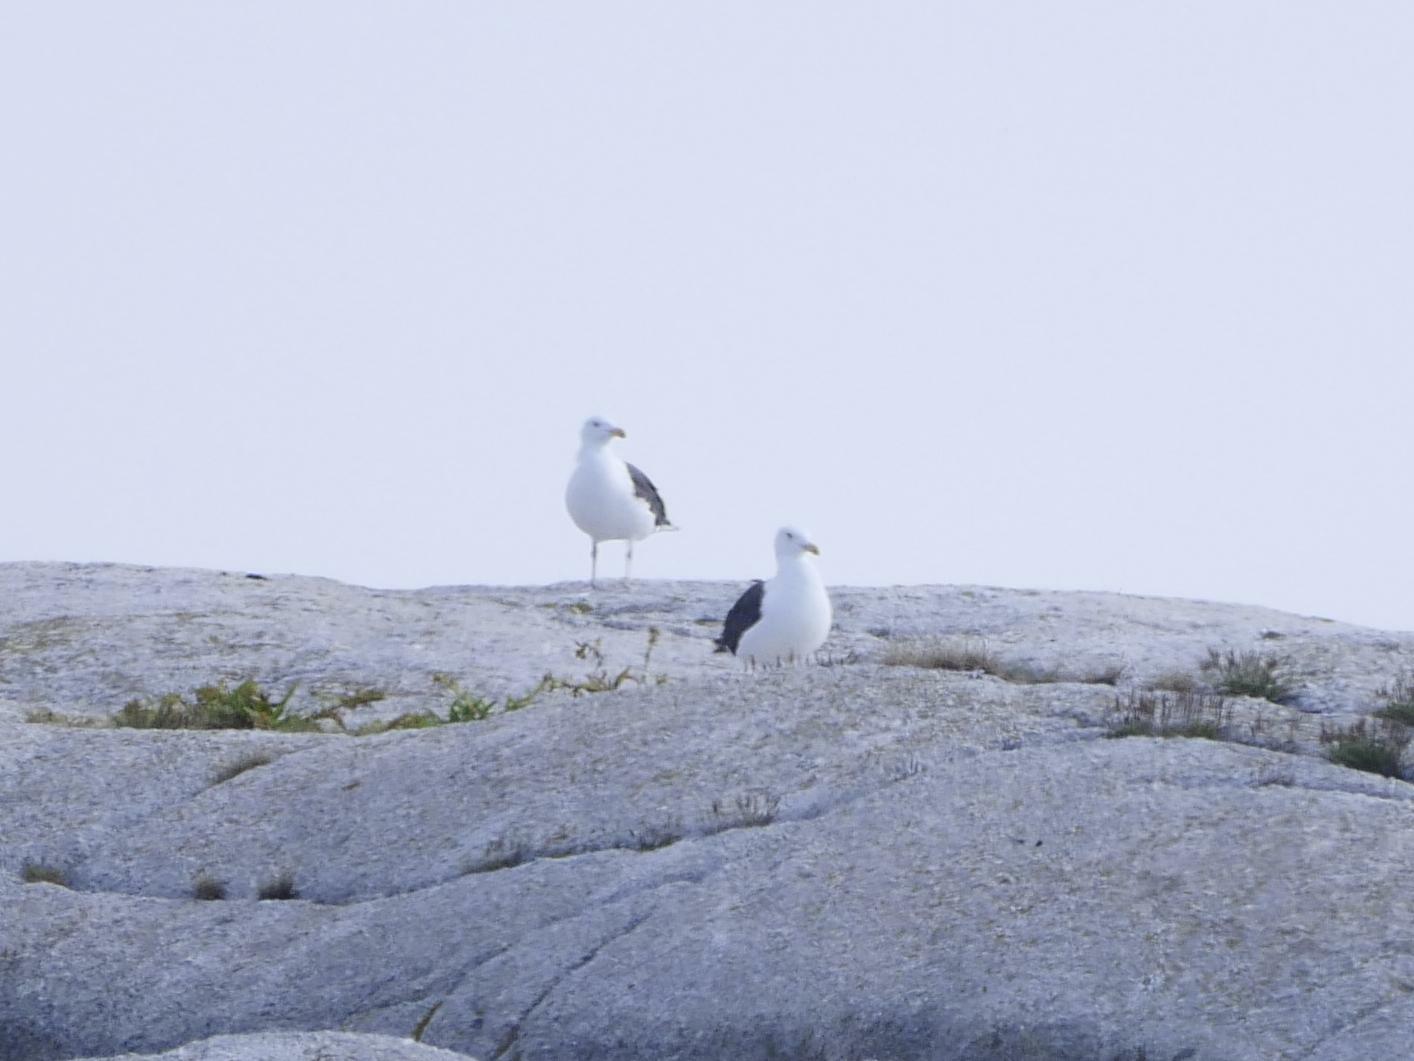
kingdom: Animalia
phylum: Chordata
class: Aves
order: Charadriiformes
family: Laridae
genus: Larus
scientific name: Larus marinus
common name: Great black-backed gull
